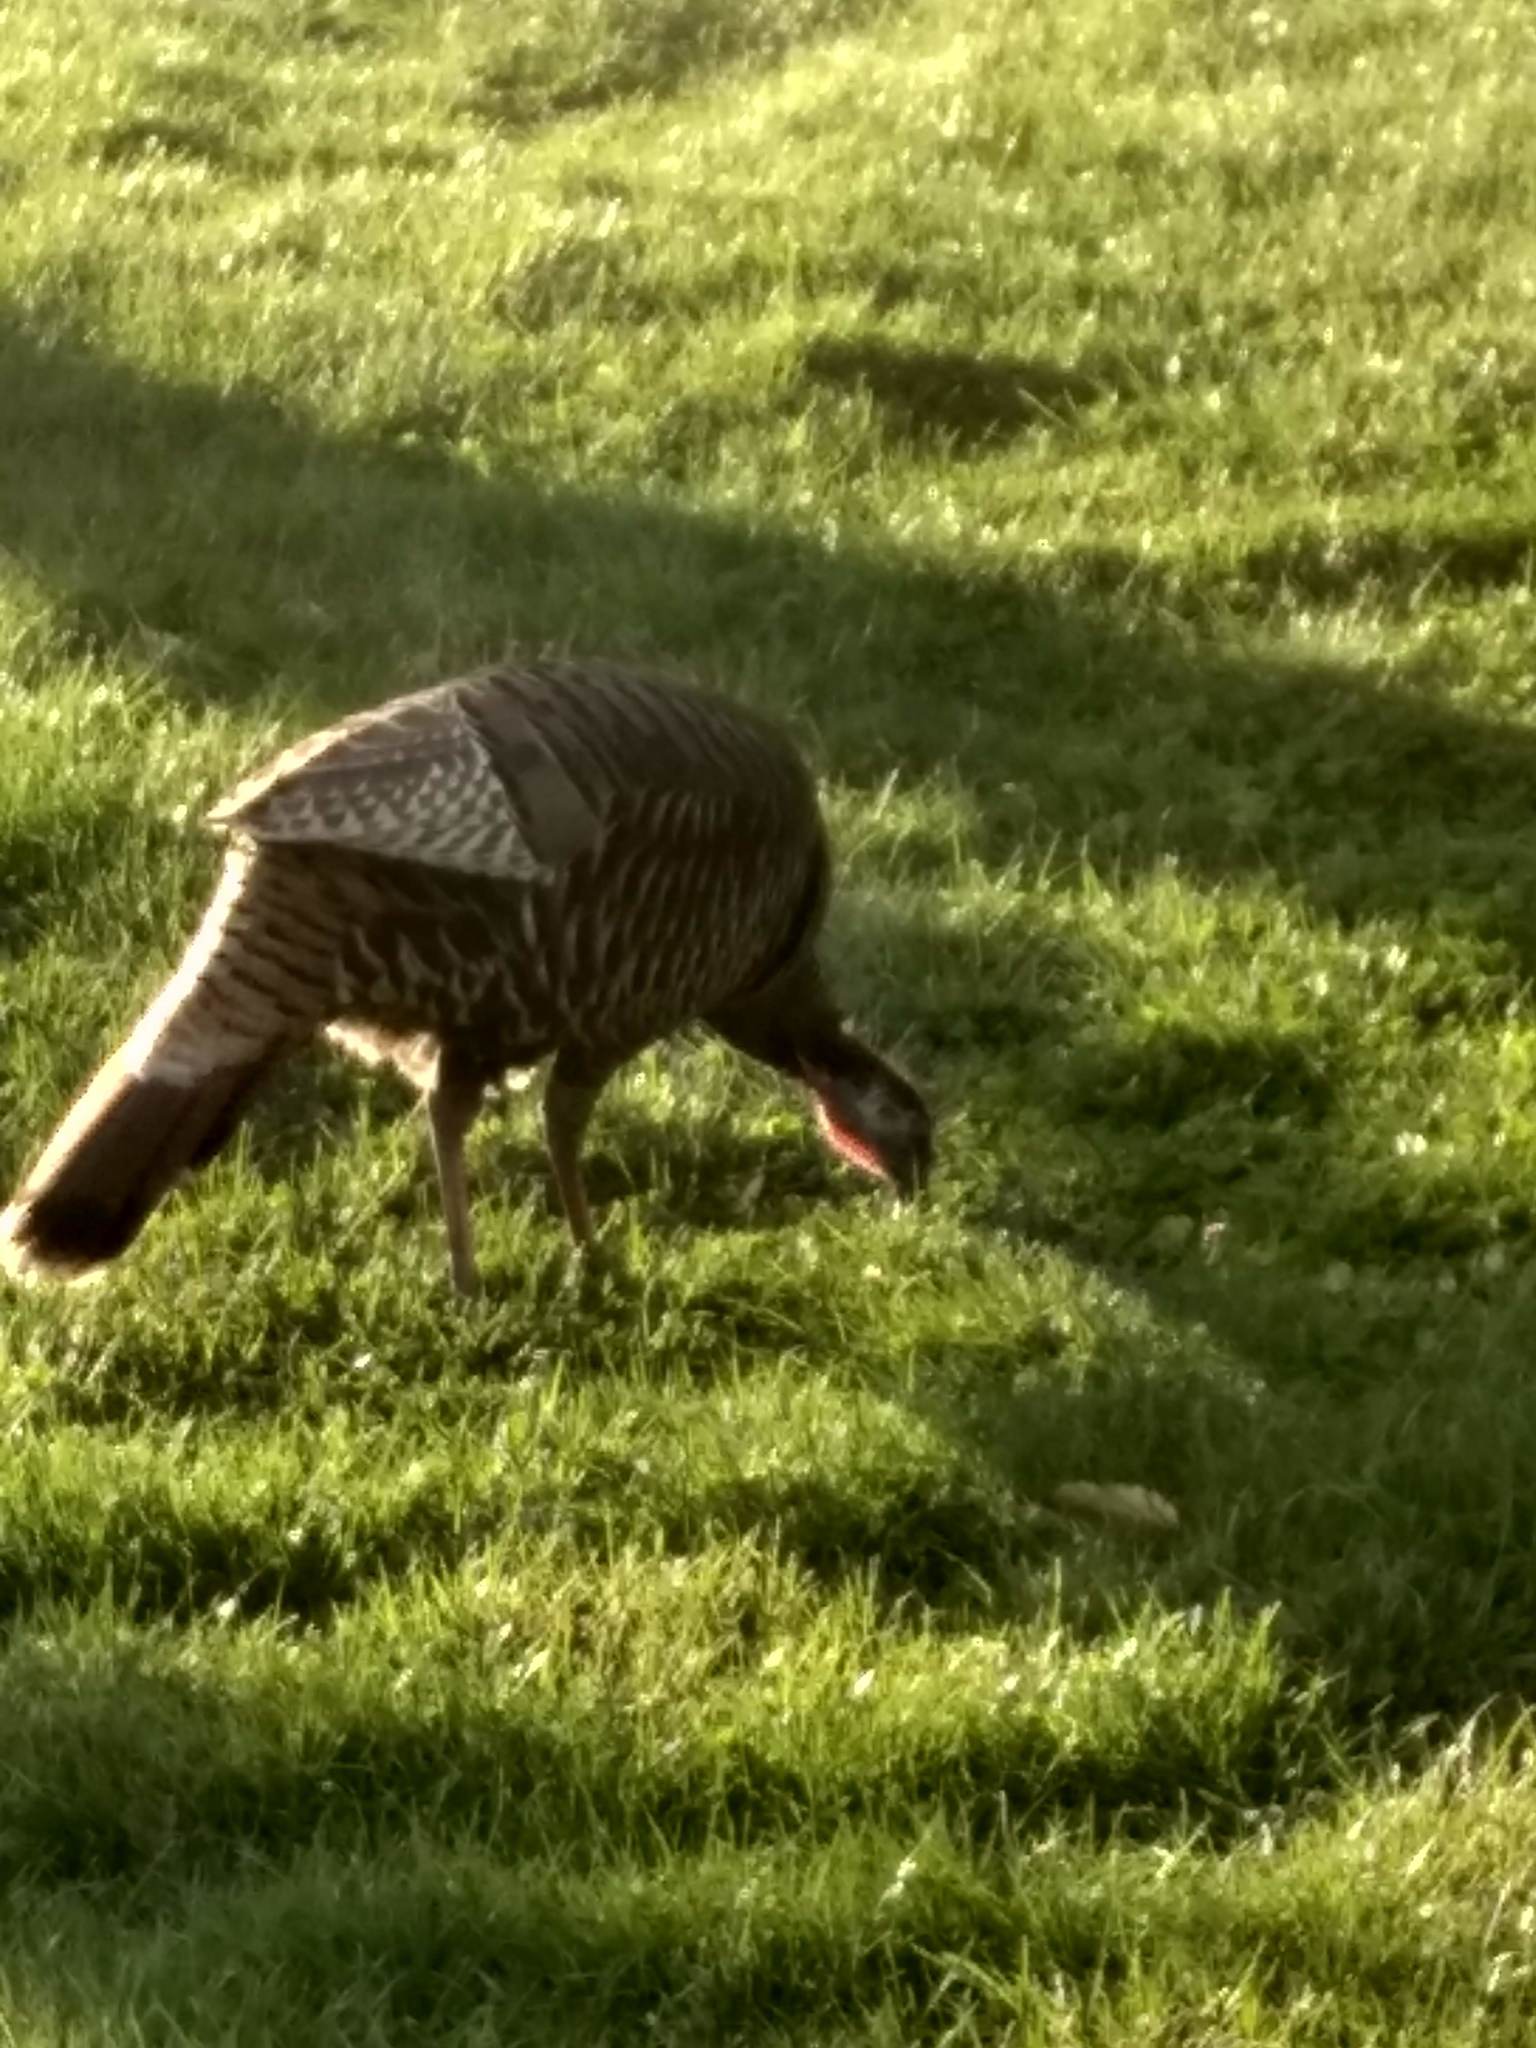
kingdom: Animalia
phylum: Chordata
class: Aves
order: Galliformes
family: Phasianidae
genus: Meleagris
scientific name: Meleagris gallopavo
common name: Wild turkey
